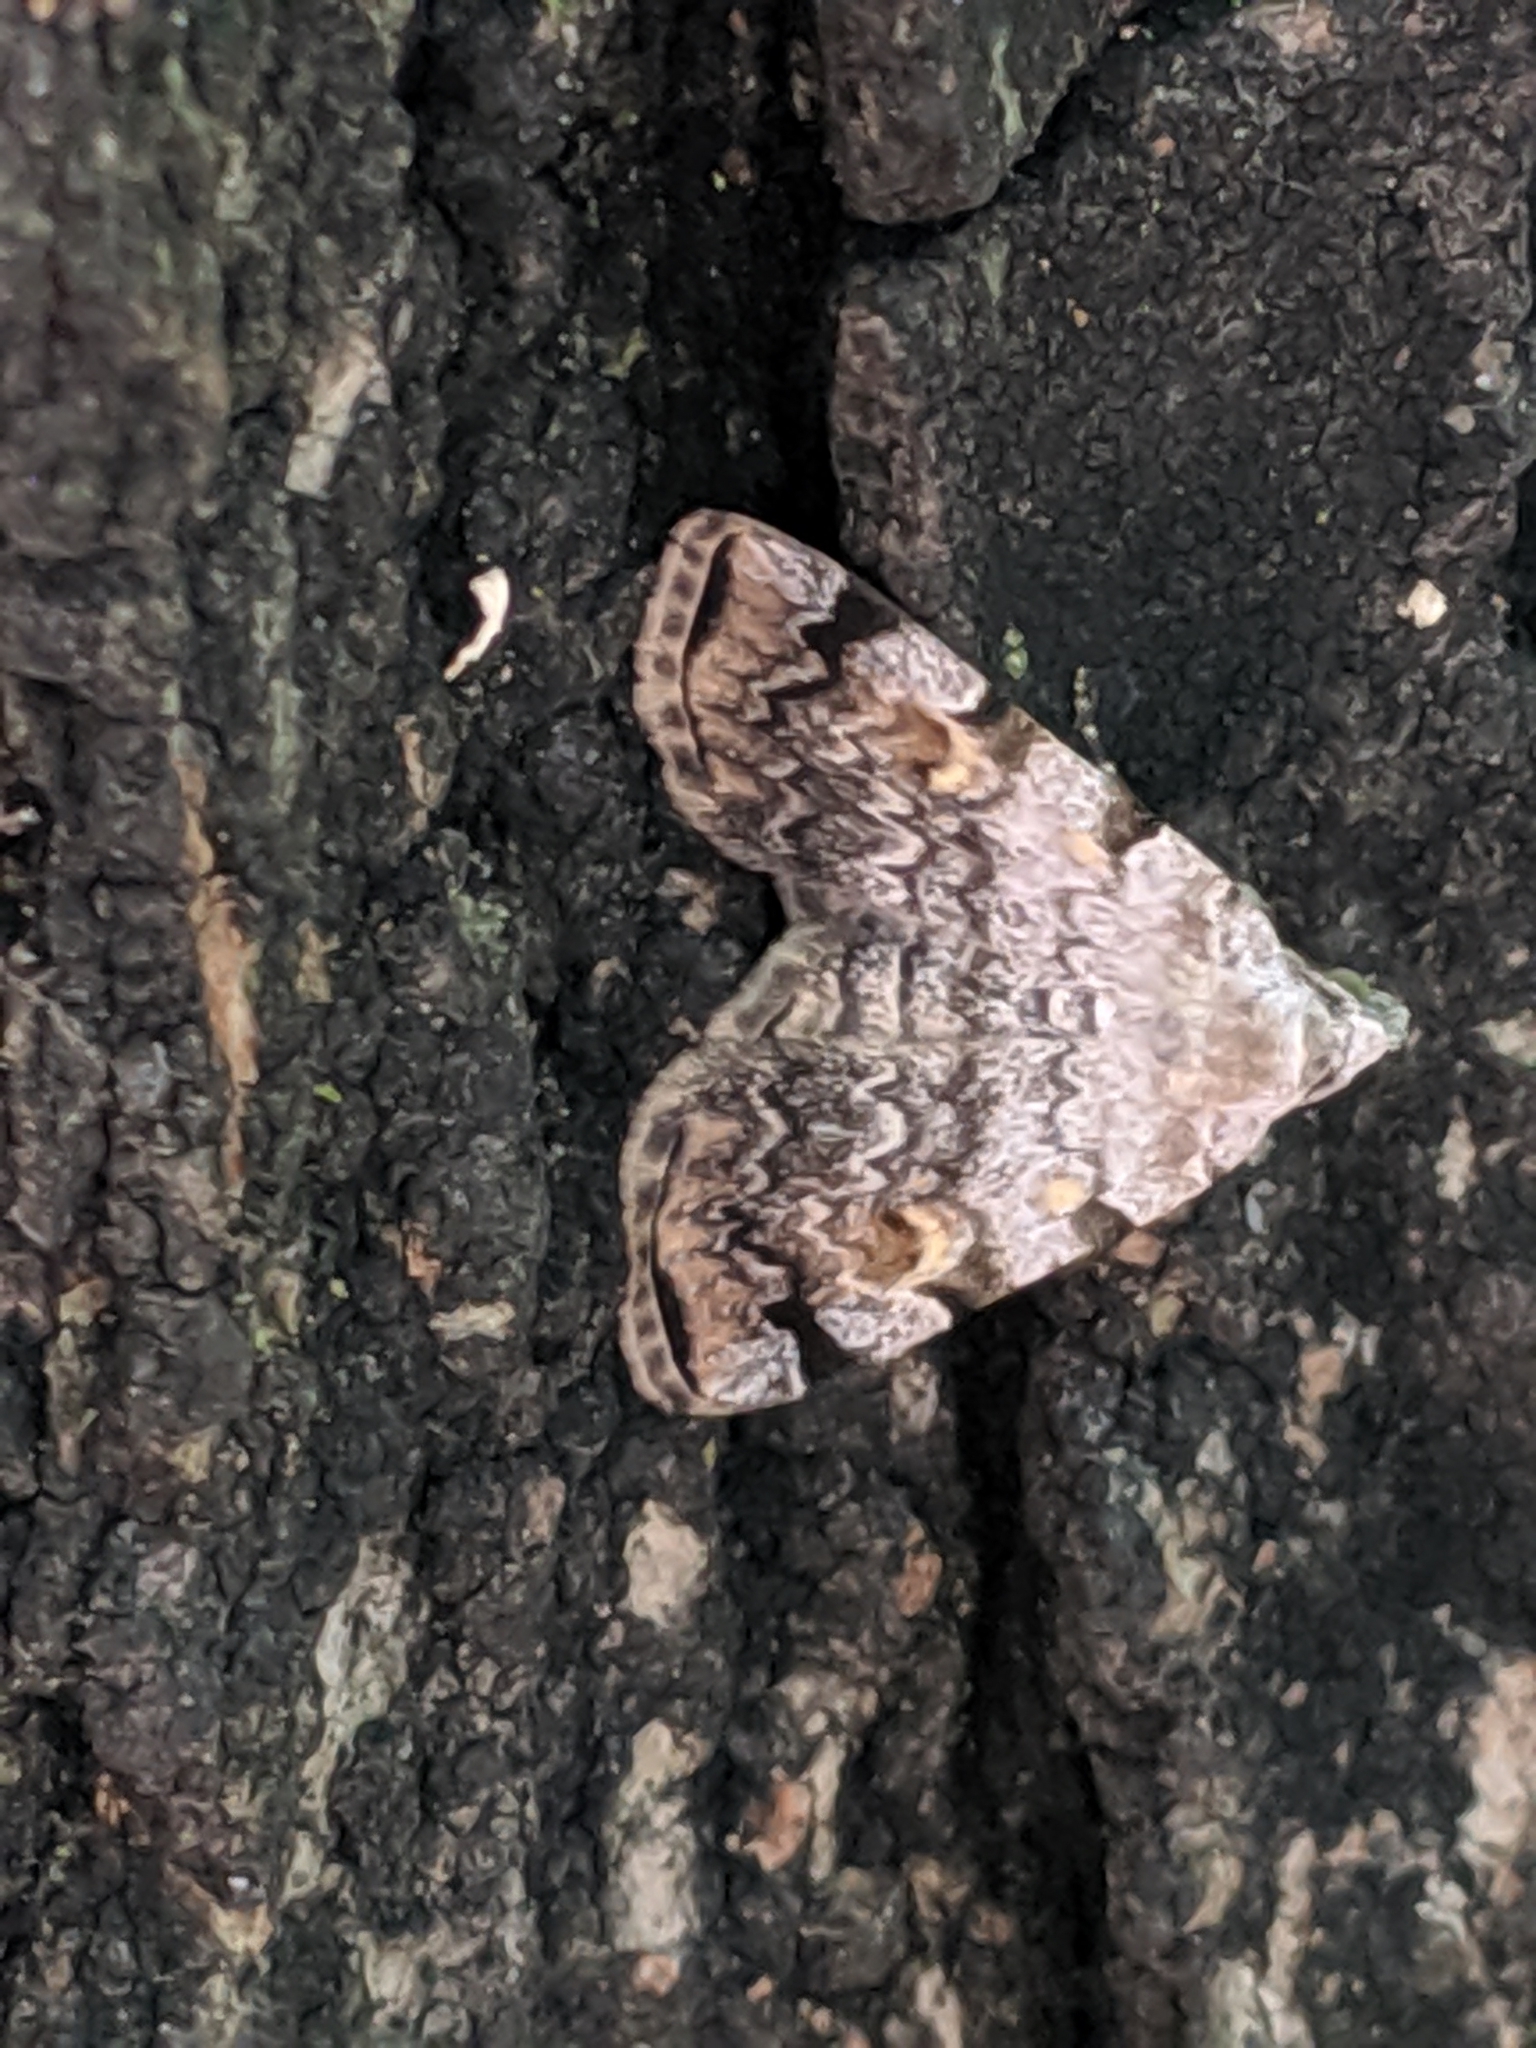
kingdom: Animalia
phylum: Arthropoda
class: Insecta
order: Lepidoptera
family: Erebidae
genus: Idia
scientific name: Idia americalis
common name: American idia moth
